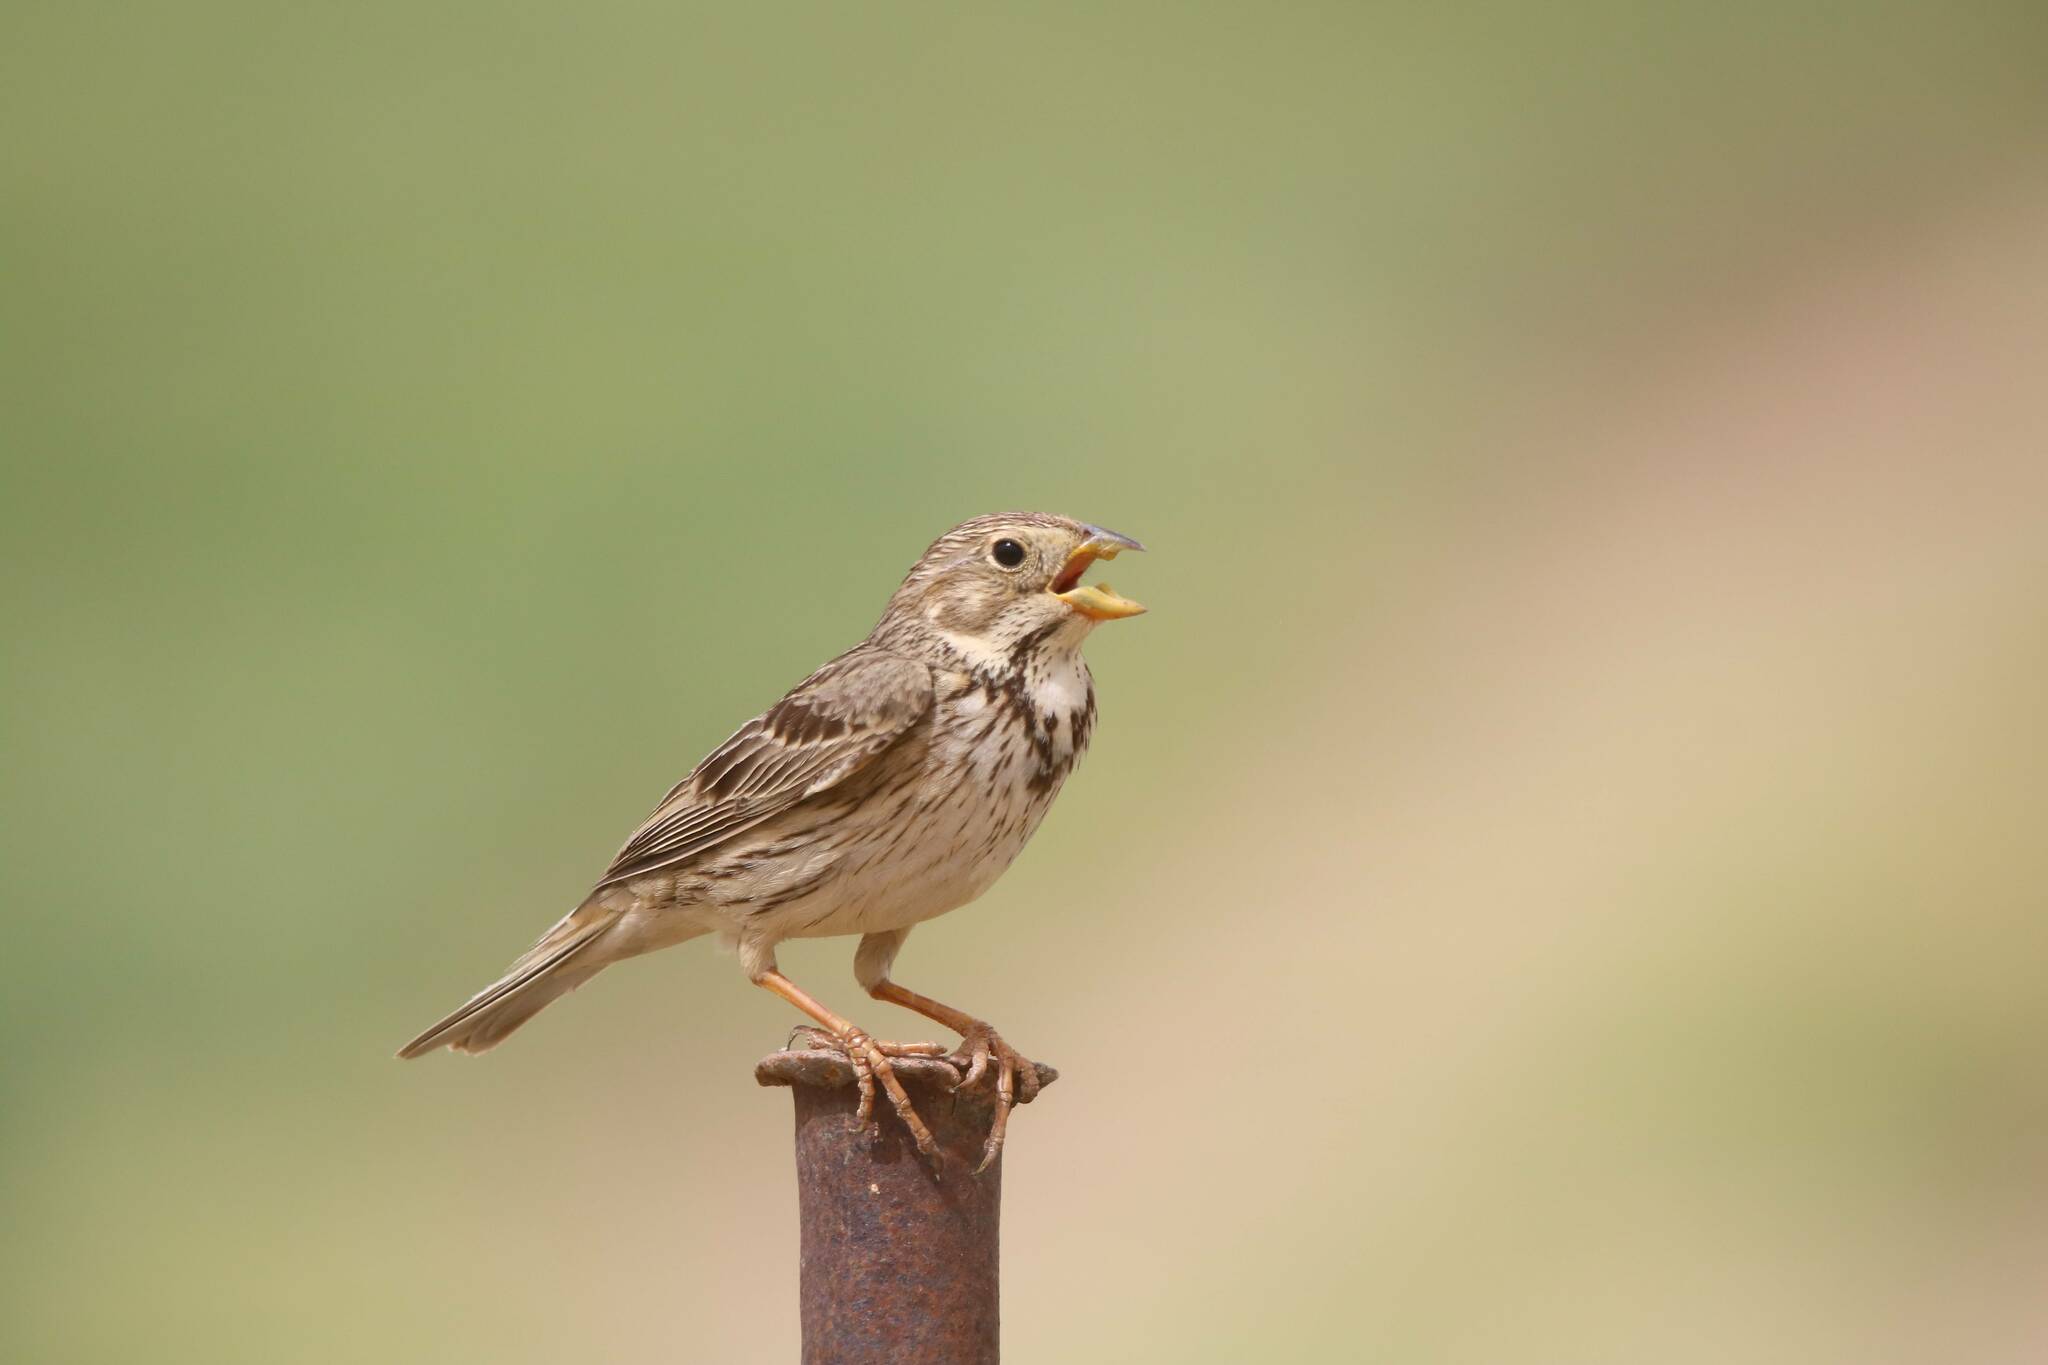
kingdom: Animalia
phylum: Chordata
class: Aves
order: Passeriformes
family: Emberizidae
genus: Emberiza
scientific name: Emberiza calandra
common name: Corn bunting
